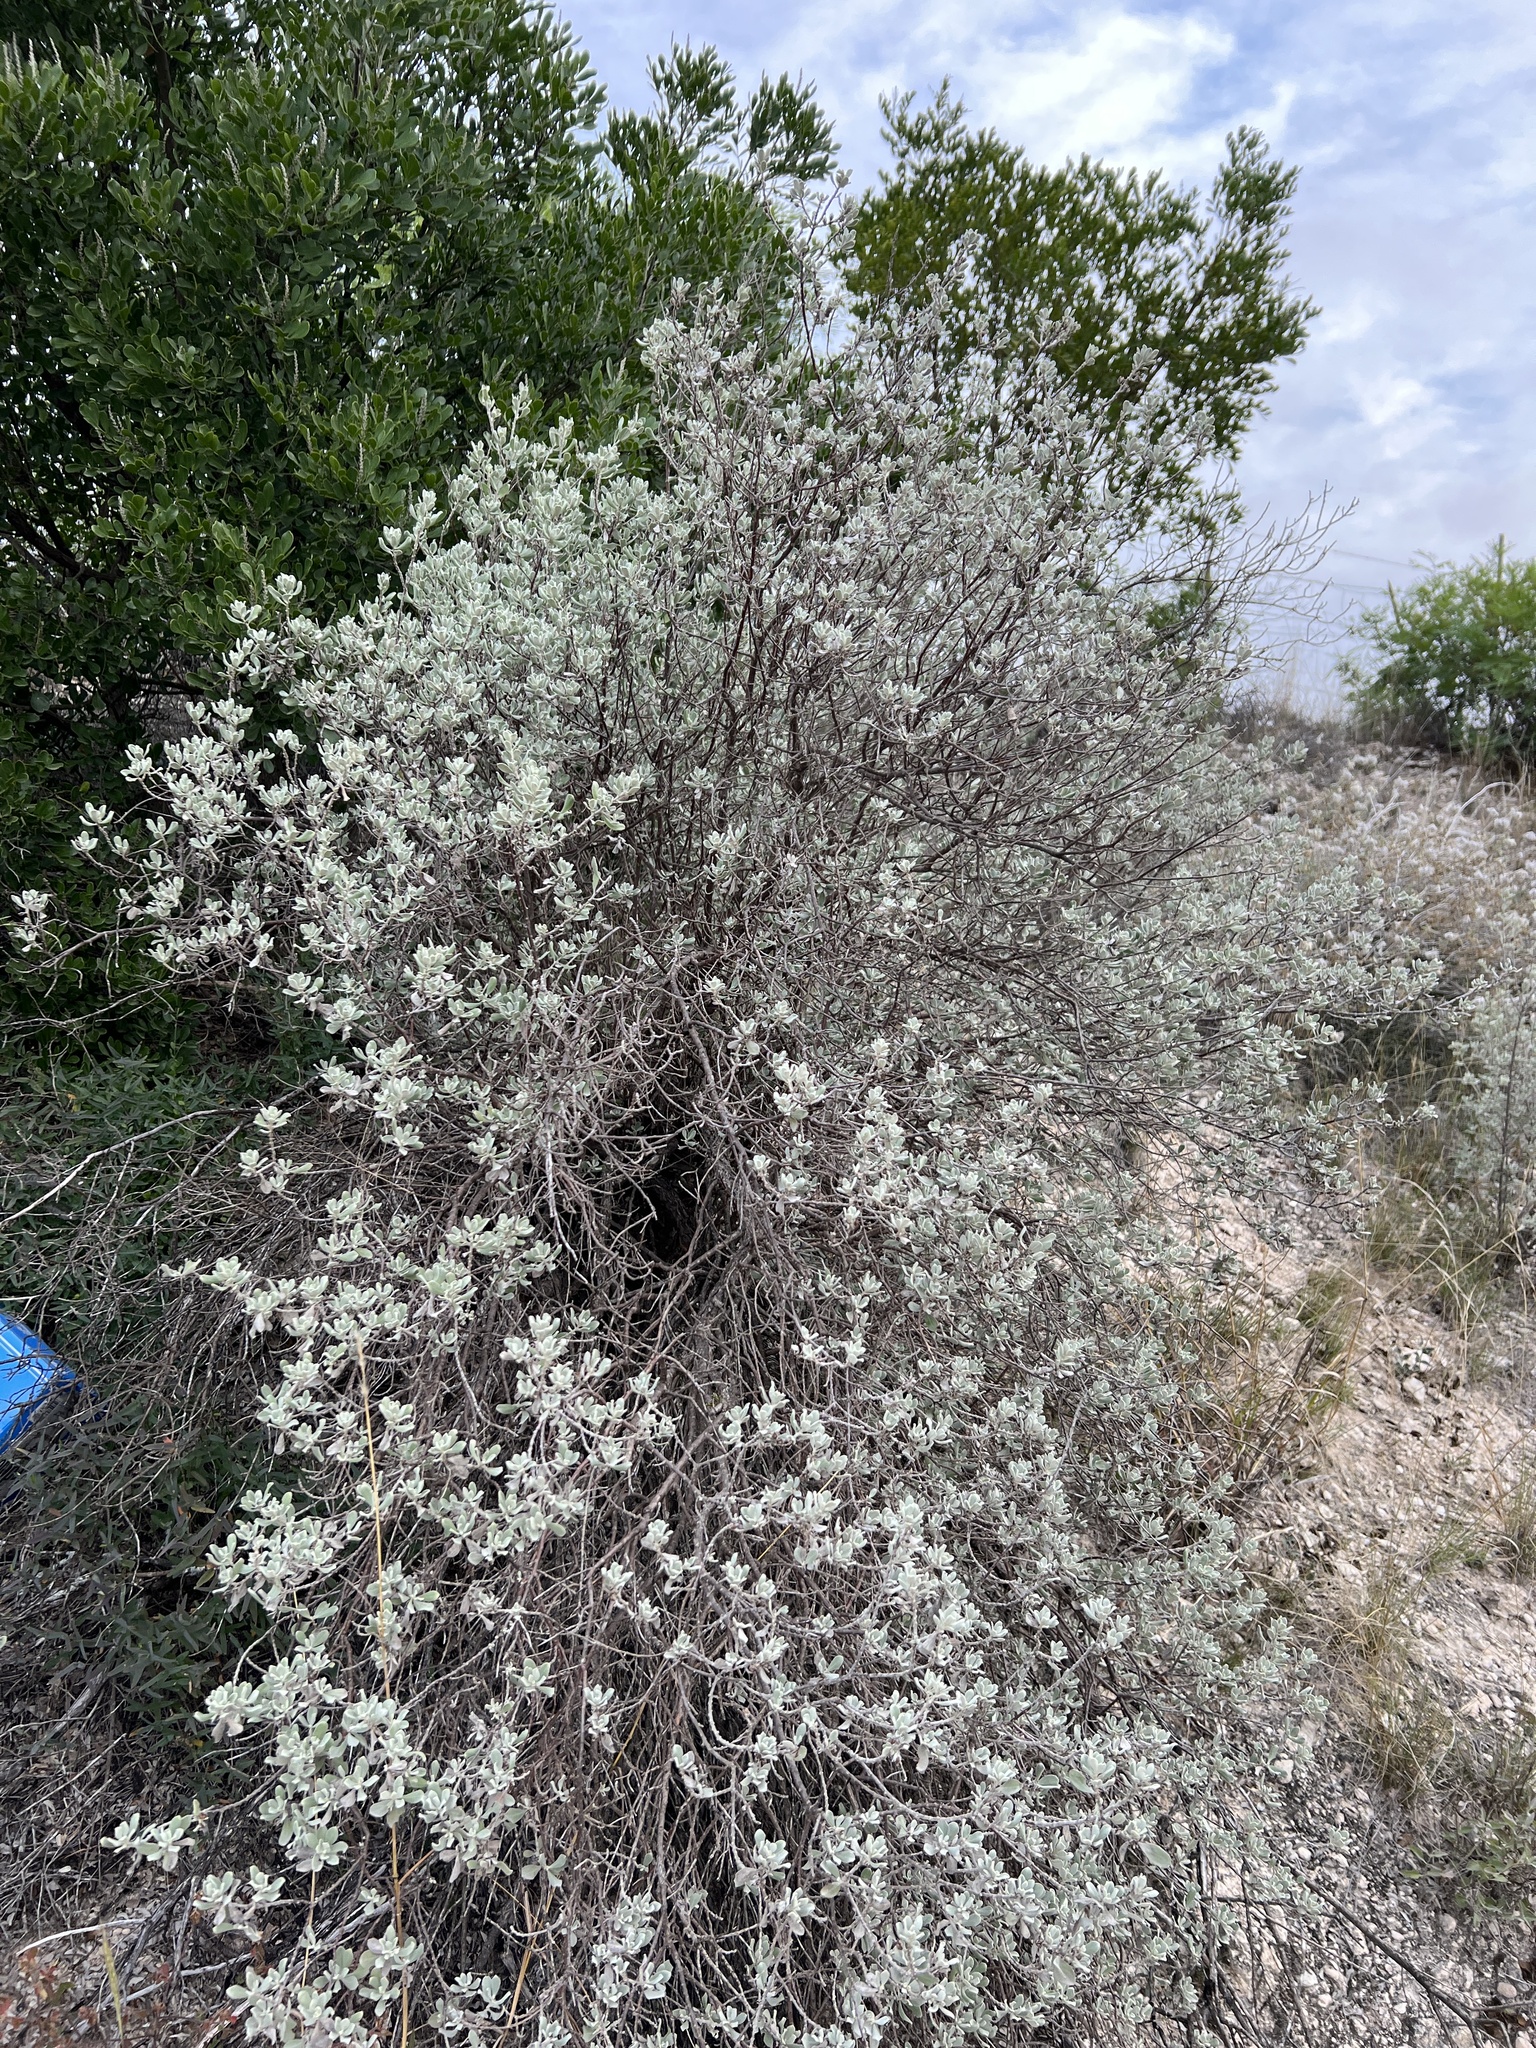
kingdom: Plantae
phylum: Tracheophyta
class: Magnoliopsida
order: Lamiales
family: Scrophulariaceae
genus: Leucophyllum
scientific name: Leucophyllum frutescens
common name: Texas silverleaf
